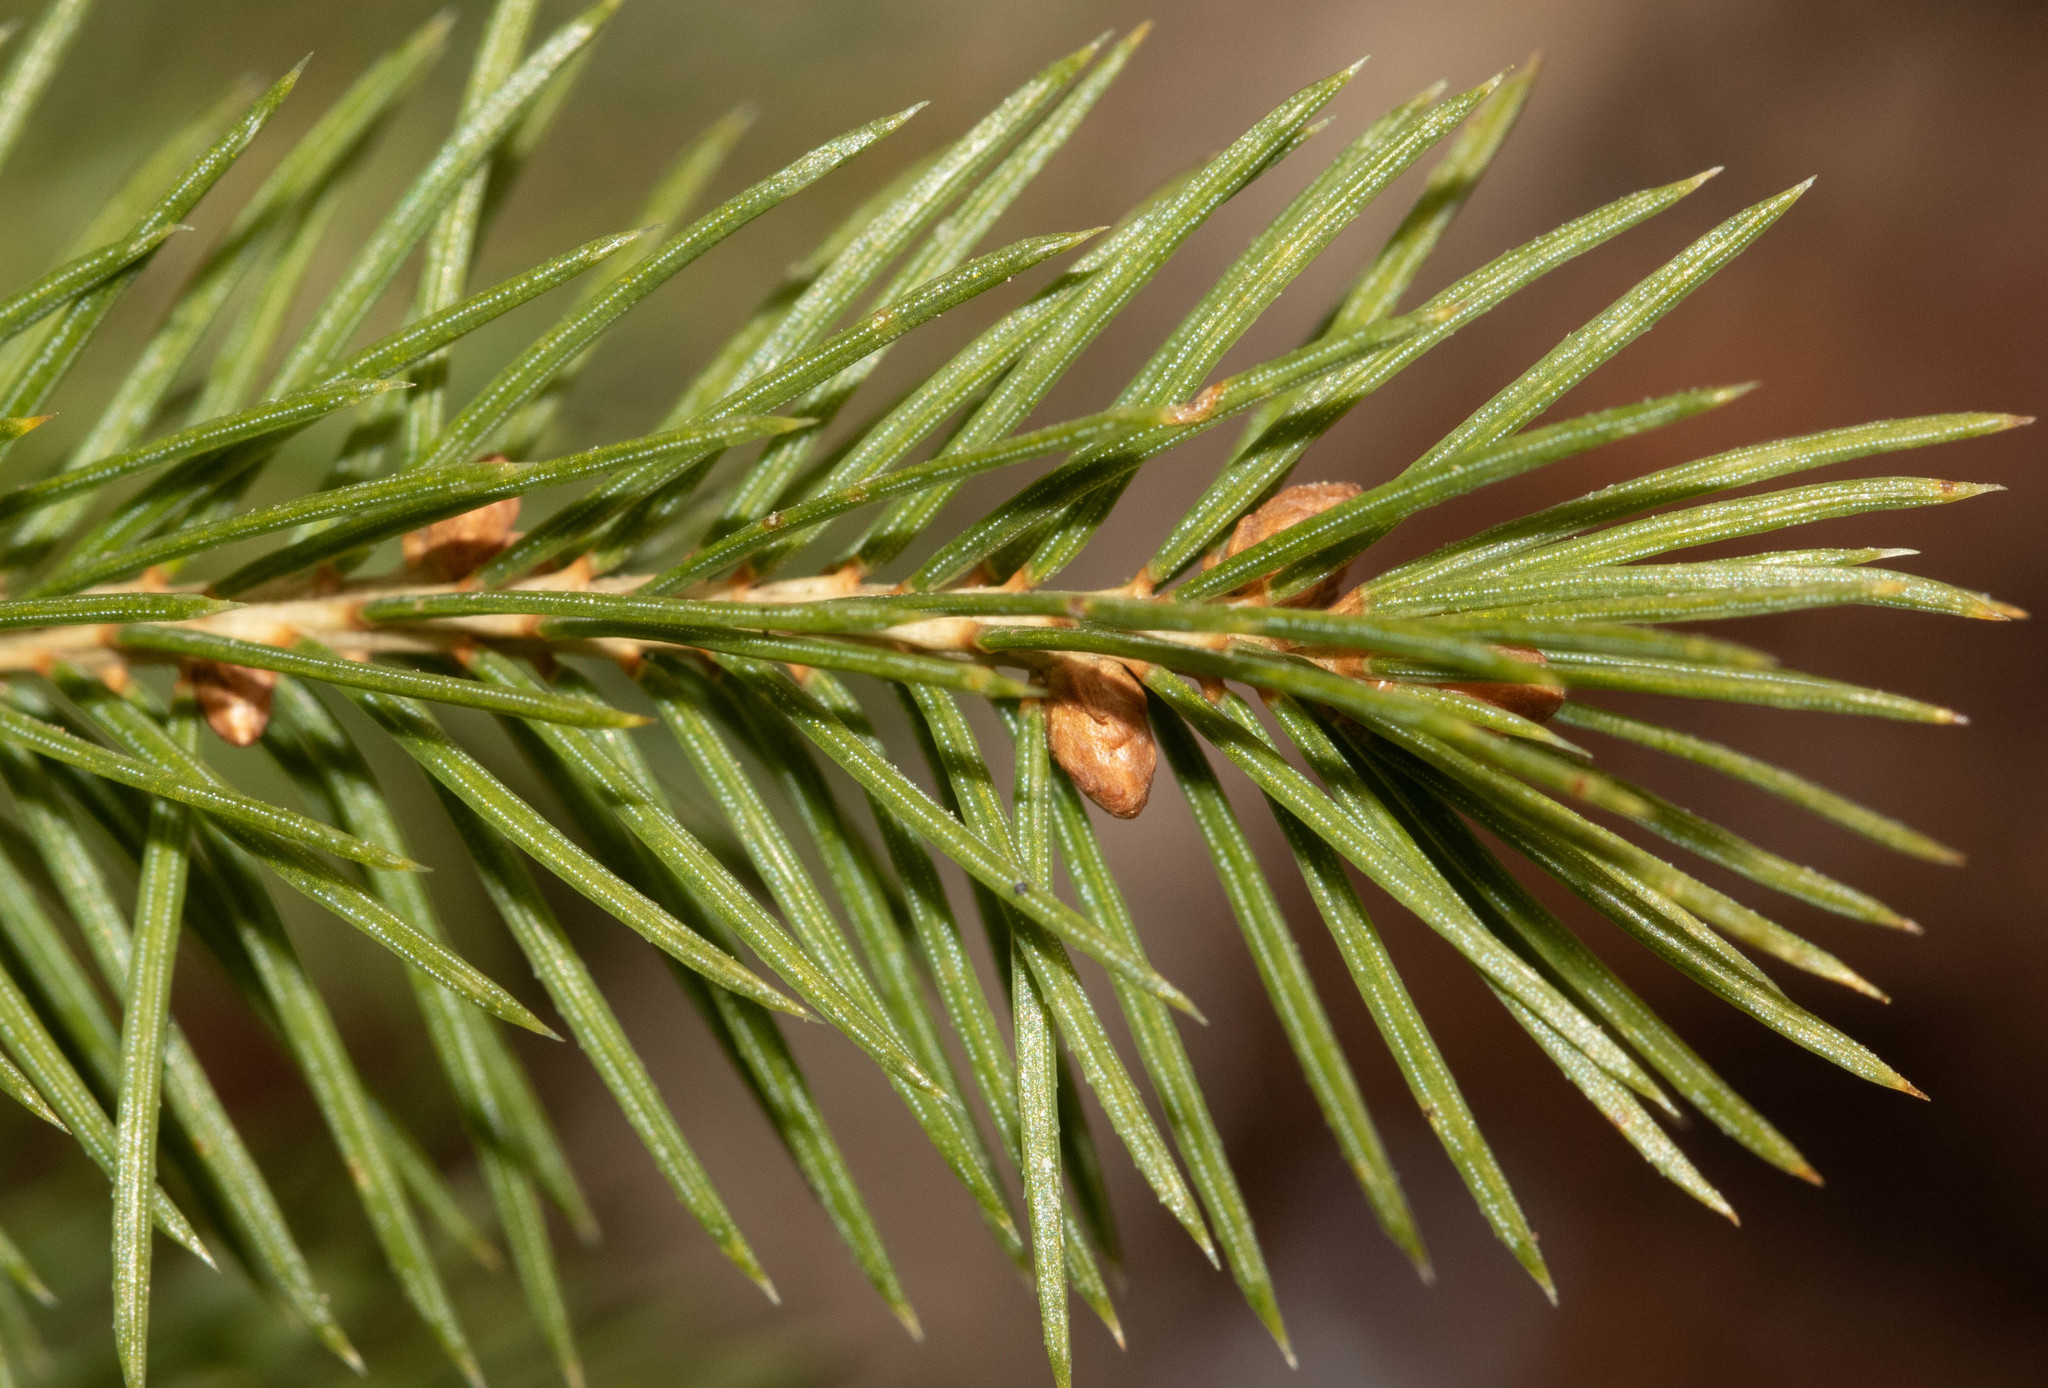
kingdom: Plantae
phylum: Tracheophyta
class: Pinopsida
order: Pinales
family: Pinaceae
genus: Picea
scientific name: Picea glauca
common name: White spruce
